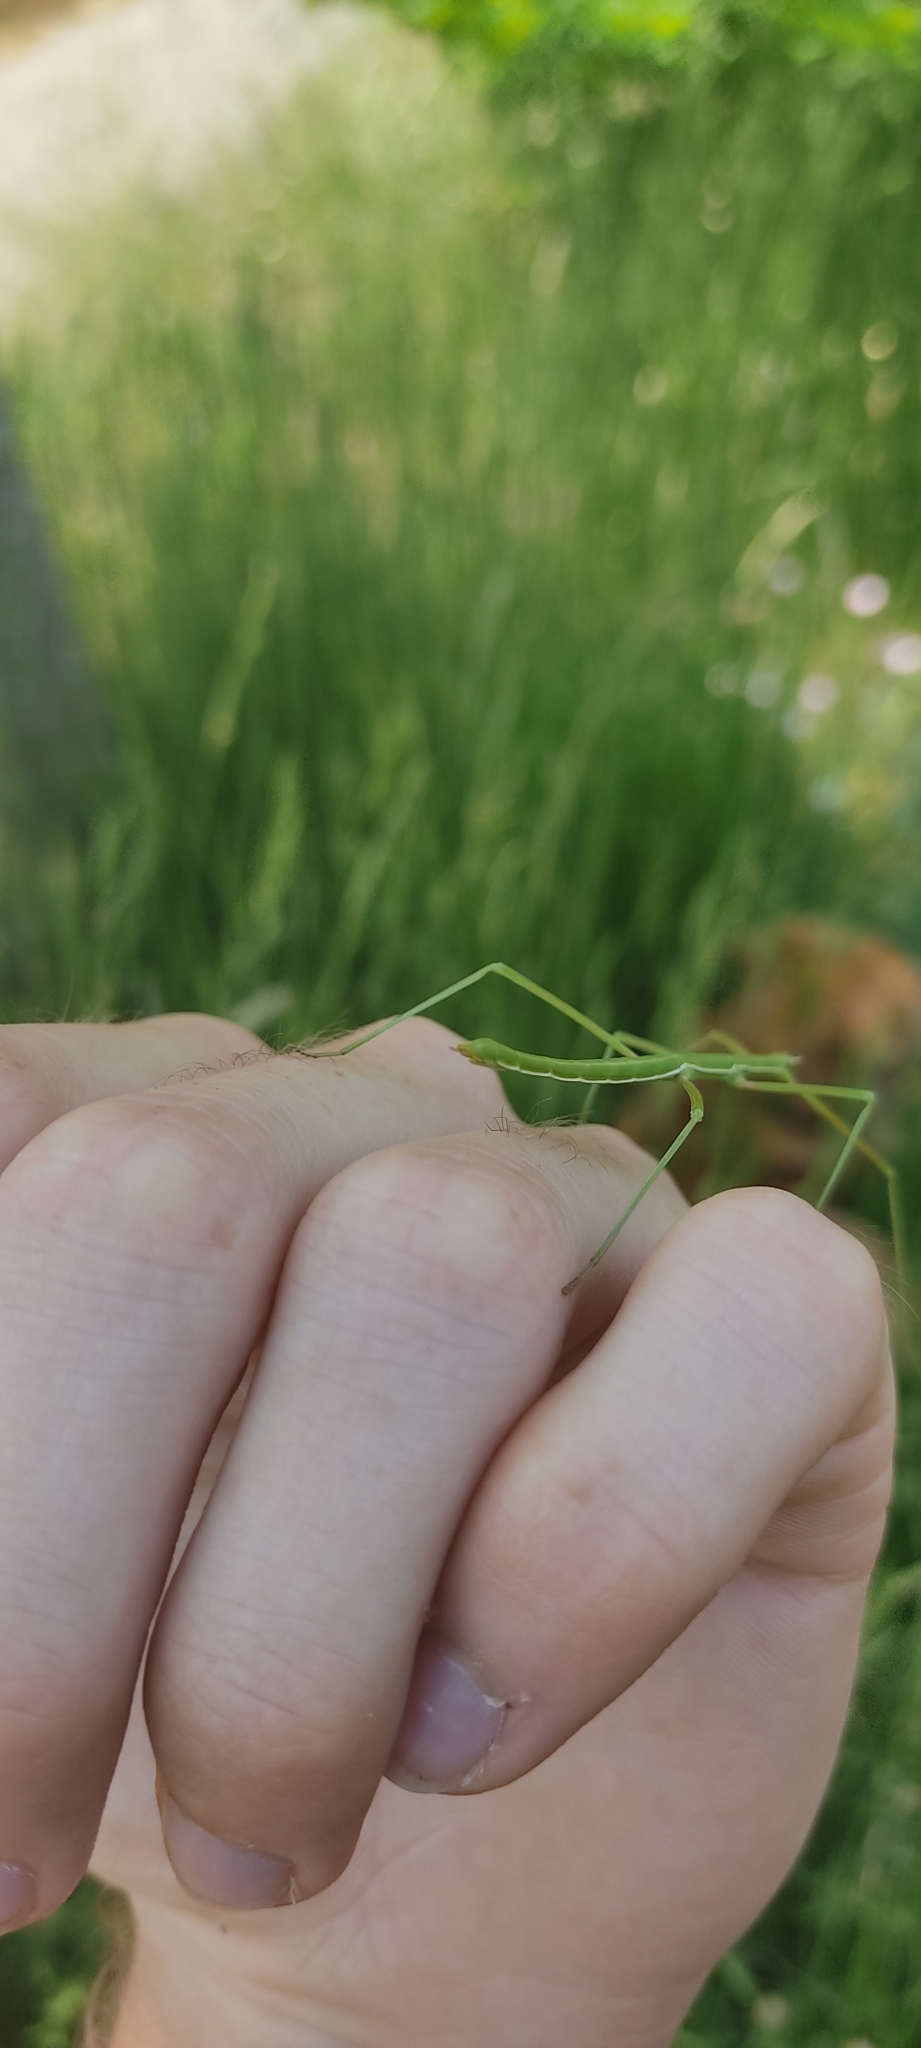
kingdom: Animalia
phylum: Arthropoda
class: Insecta
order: Phasmida
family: Bacillidae
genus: Pijnackeria
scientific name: Pijnackeria masettii
